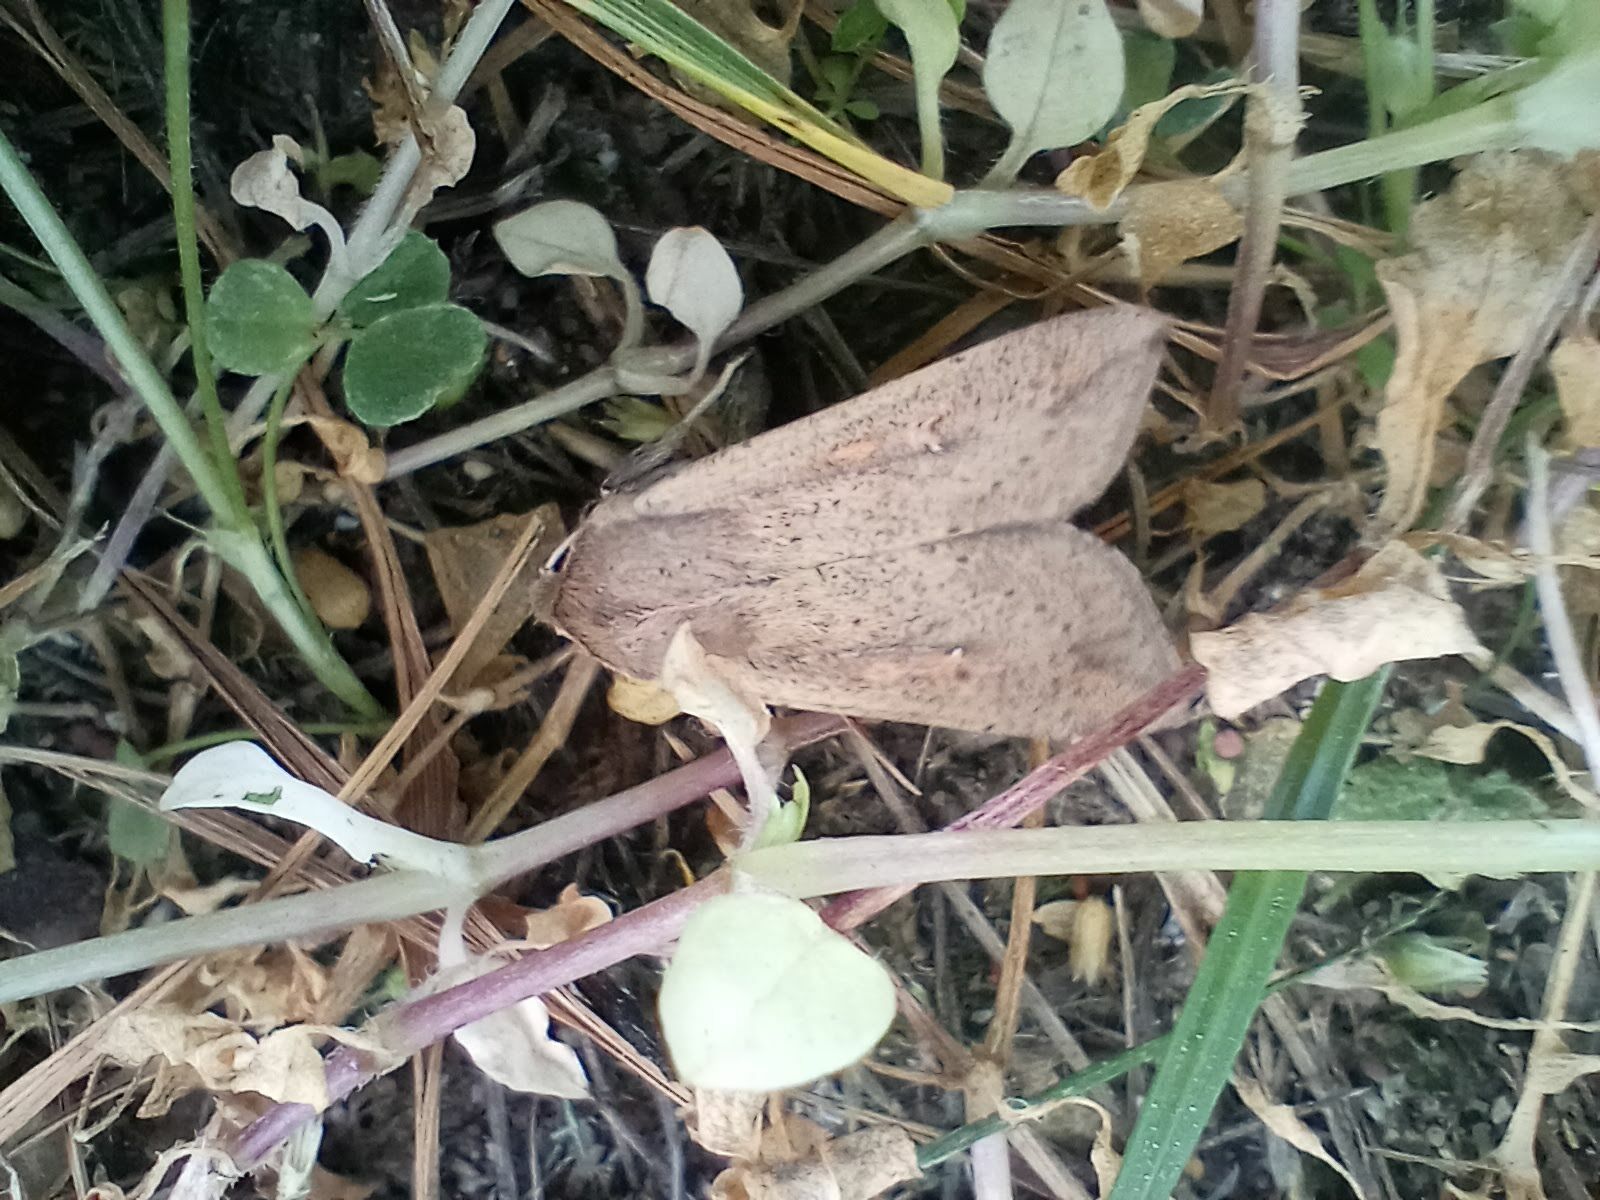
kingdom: Animalia
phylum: Arthropoda
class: Insecta
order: Lepidoptera
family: Noctuidae
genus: Mythimna
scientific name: Mythimna unipuncta
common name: White-speck
